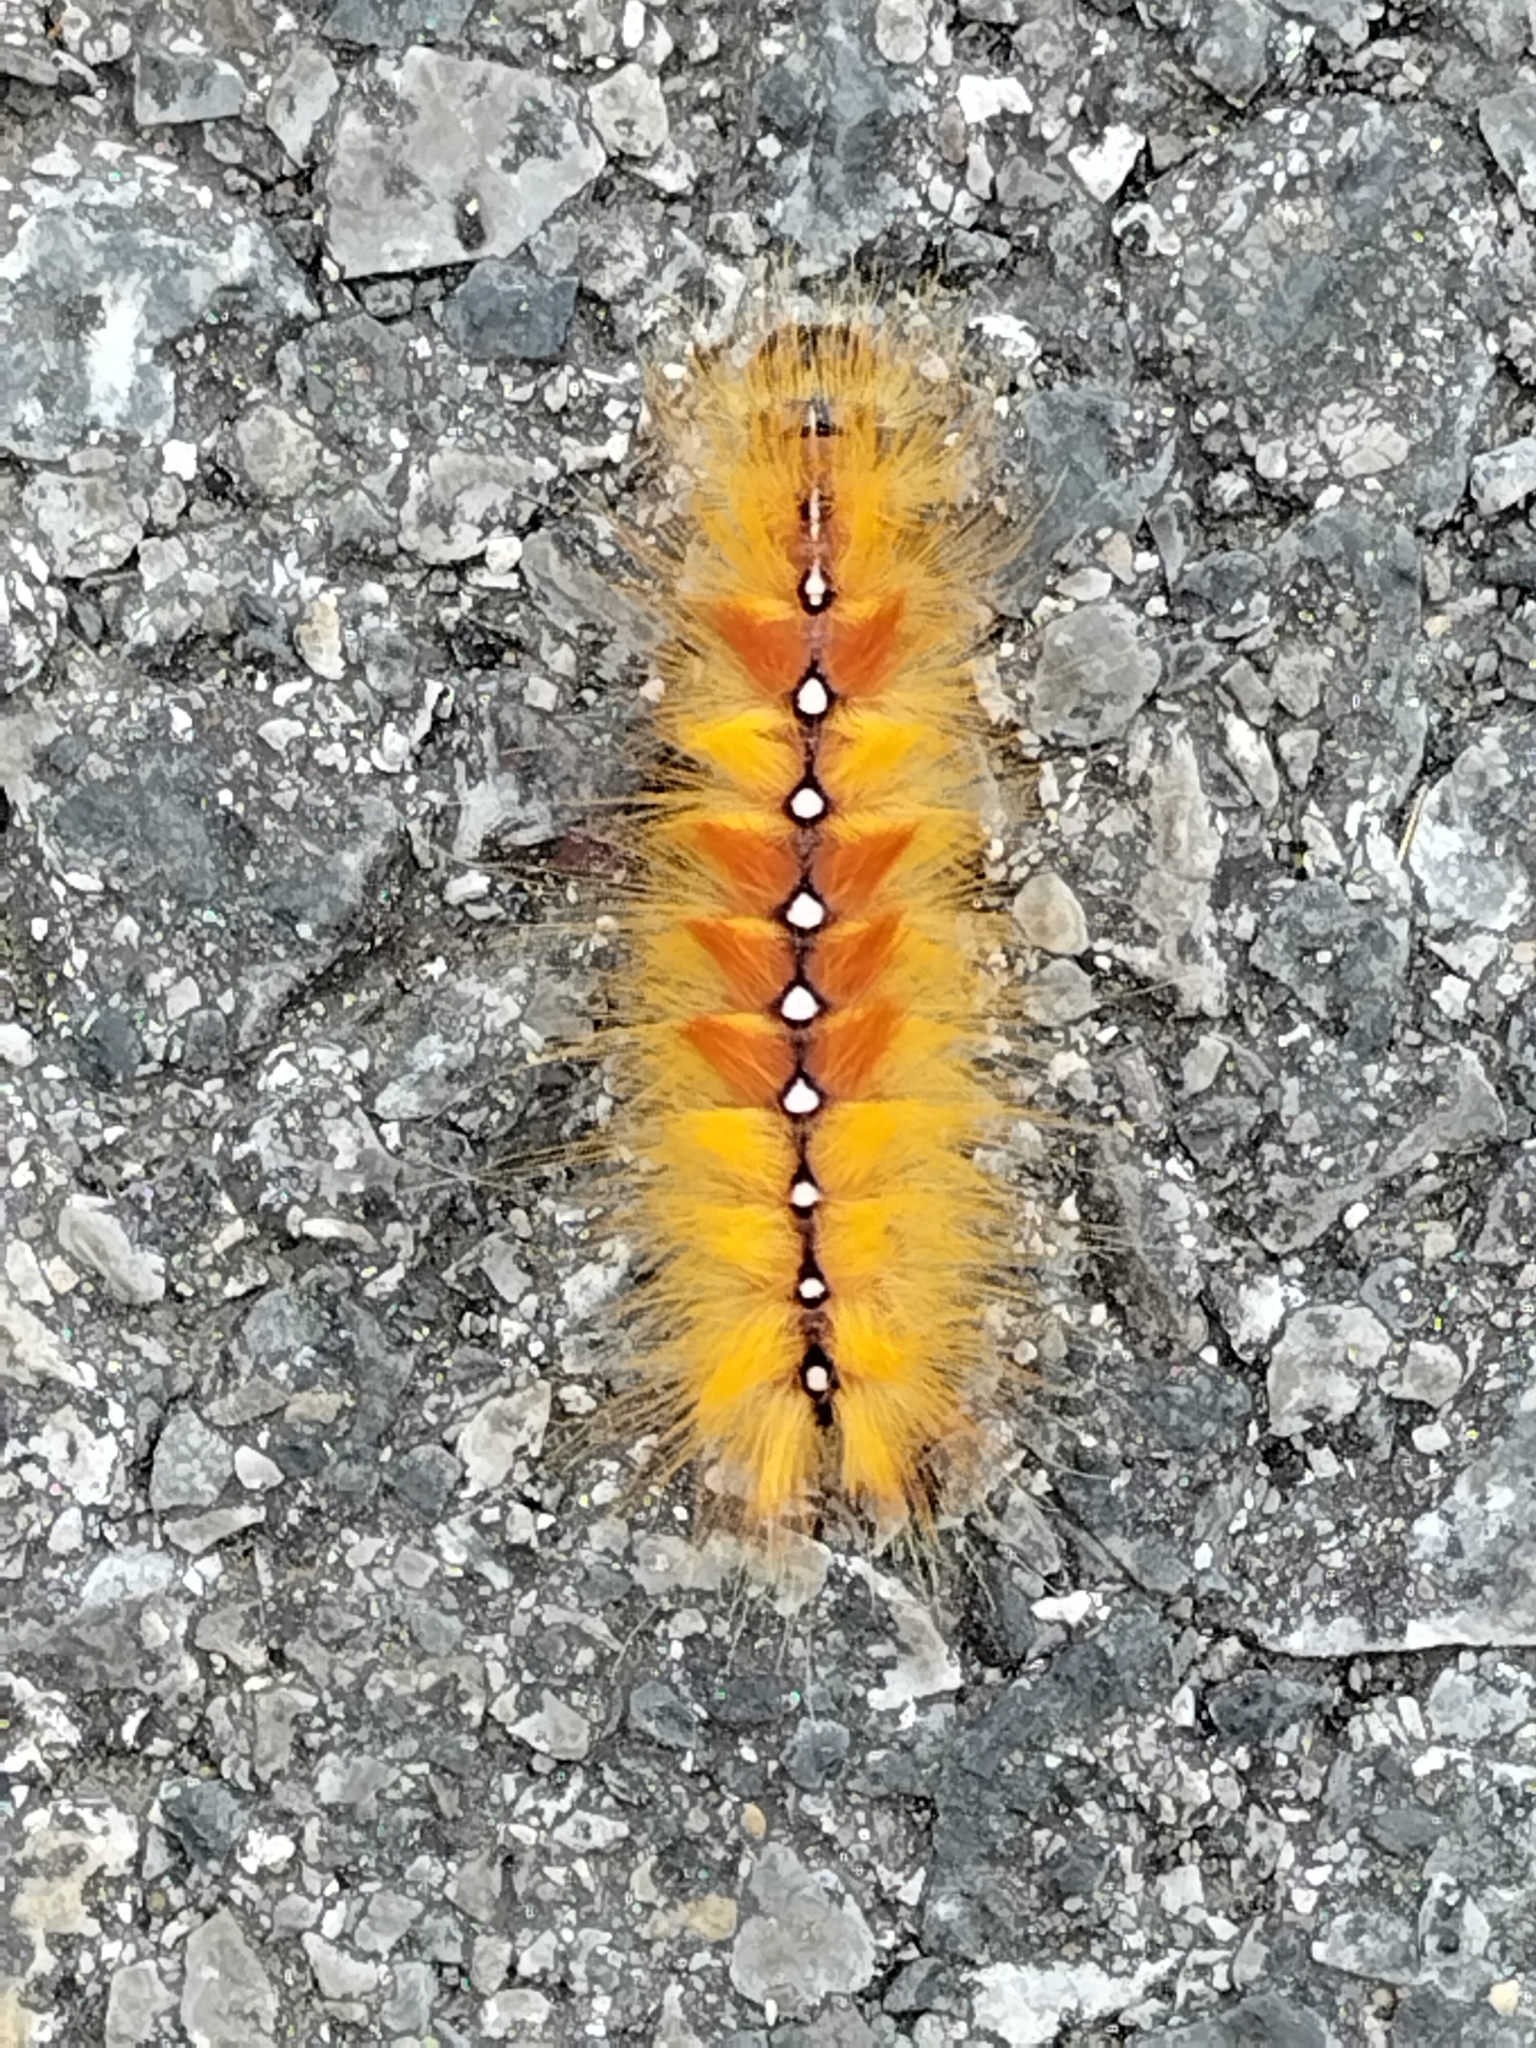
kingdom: Animalia
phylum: Arthropoda
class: Insecta
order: Lepidoptera
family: Noctuidae
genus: Acronicta
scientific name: Acronicta aceris
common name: Sycamore
